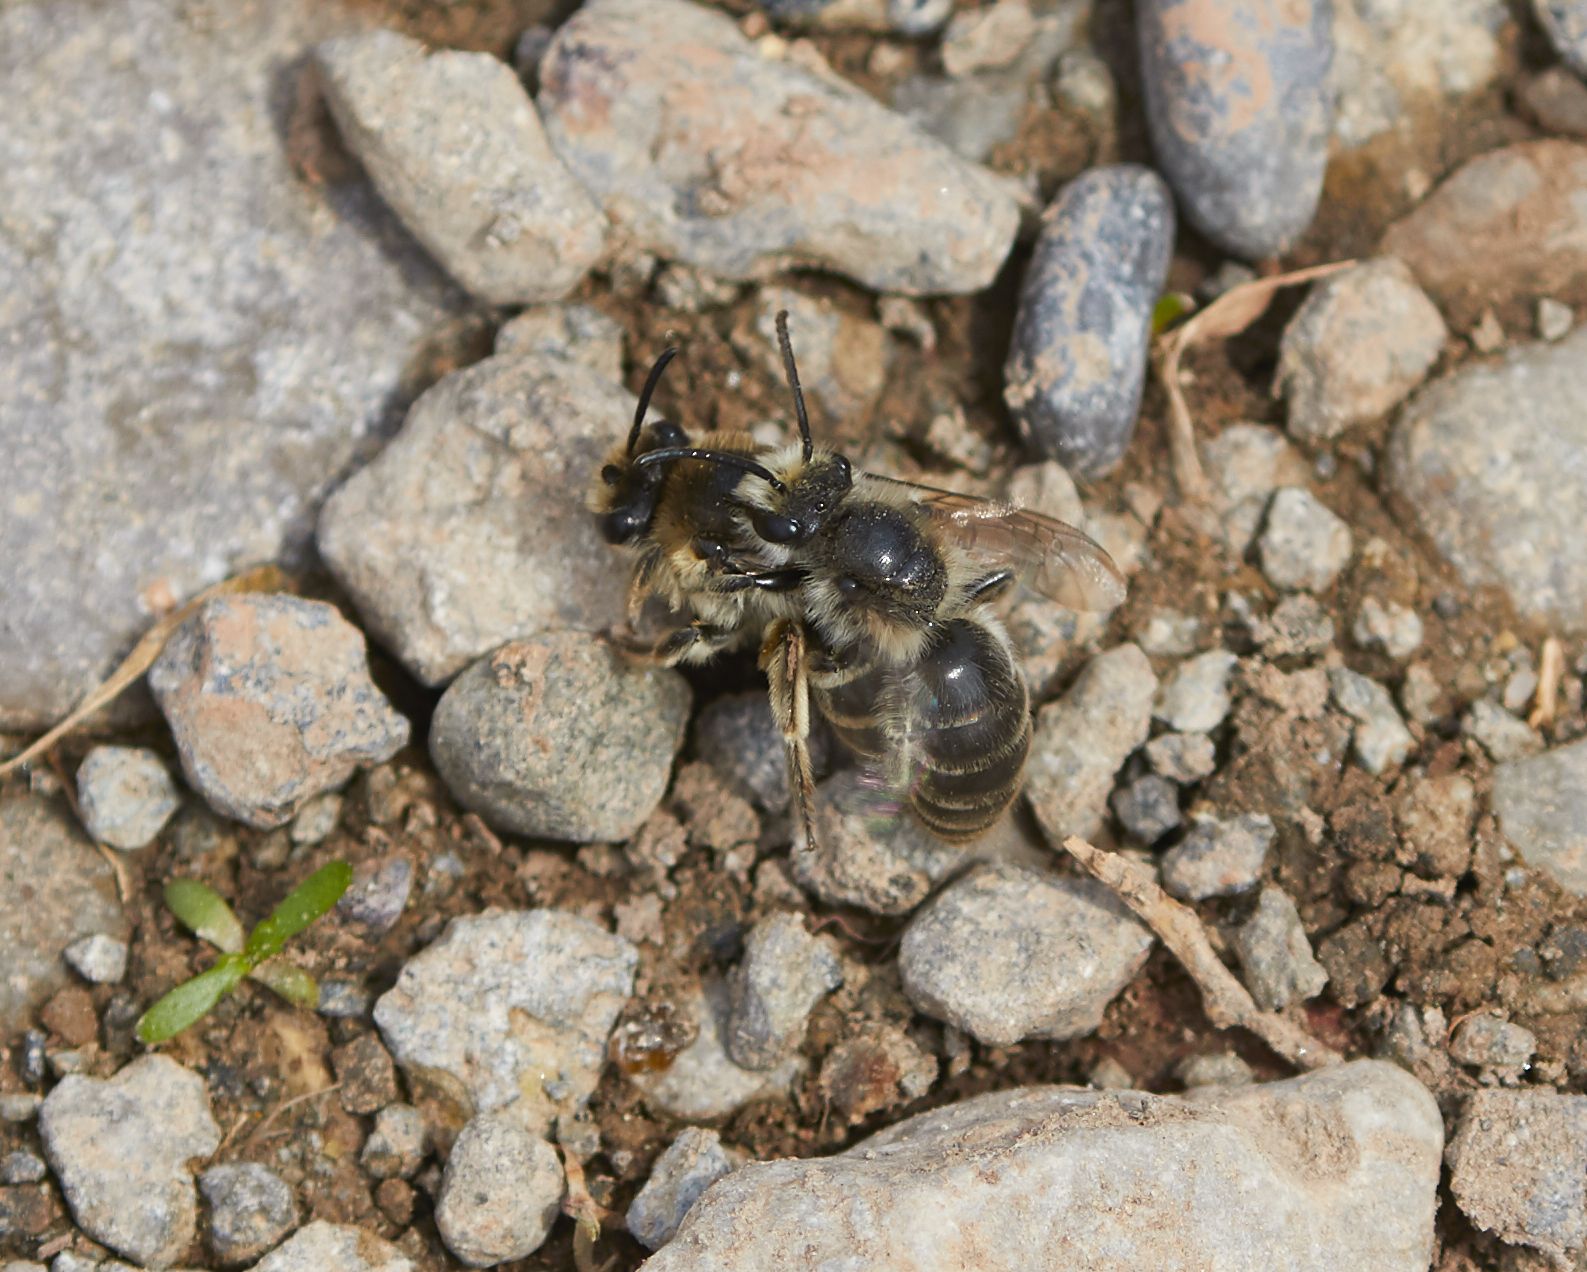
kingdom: Animalia
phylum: Arthropoda
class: Insecta
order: Hymenoptera
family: Colletidae
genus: Colletes
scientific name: Colletes inaequalis
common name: Unequal cellophane bee
